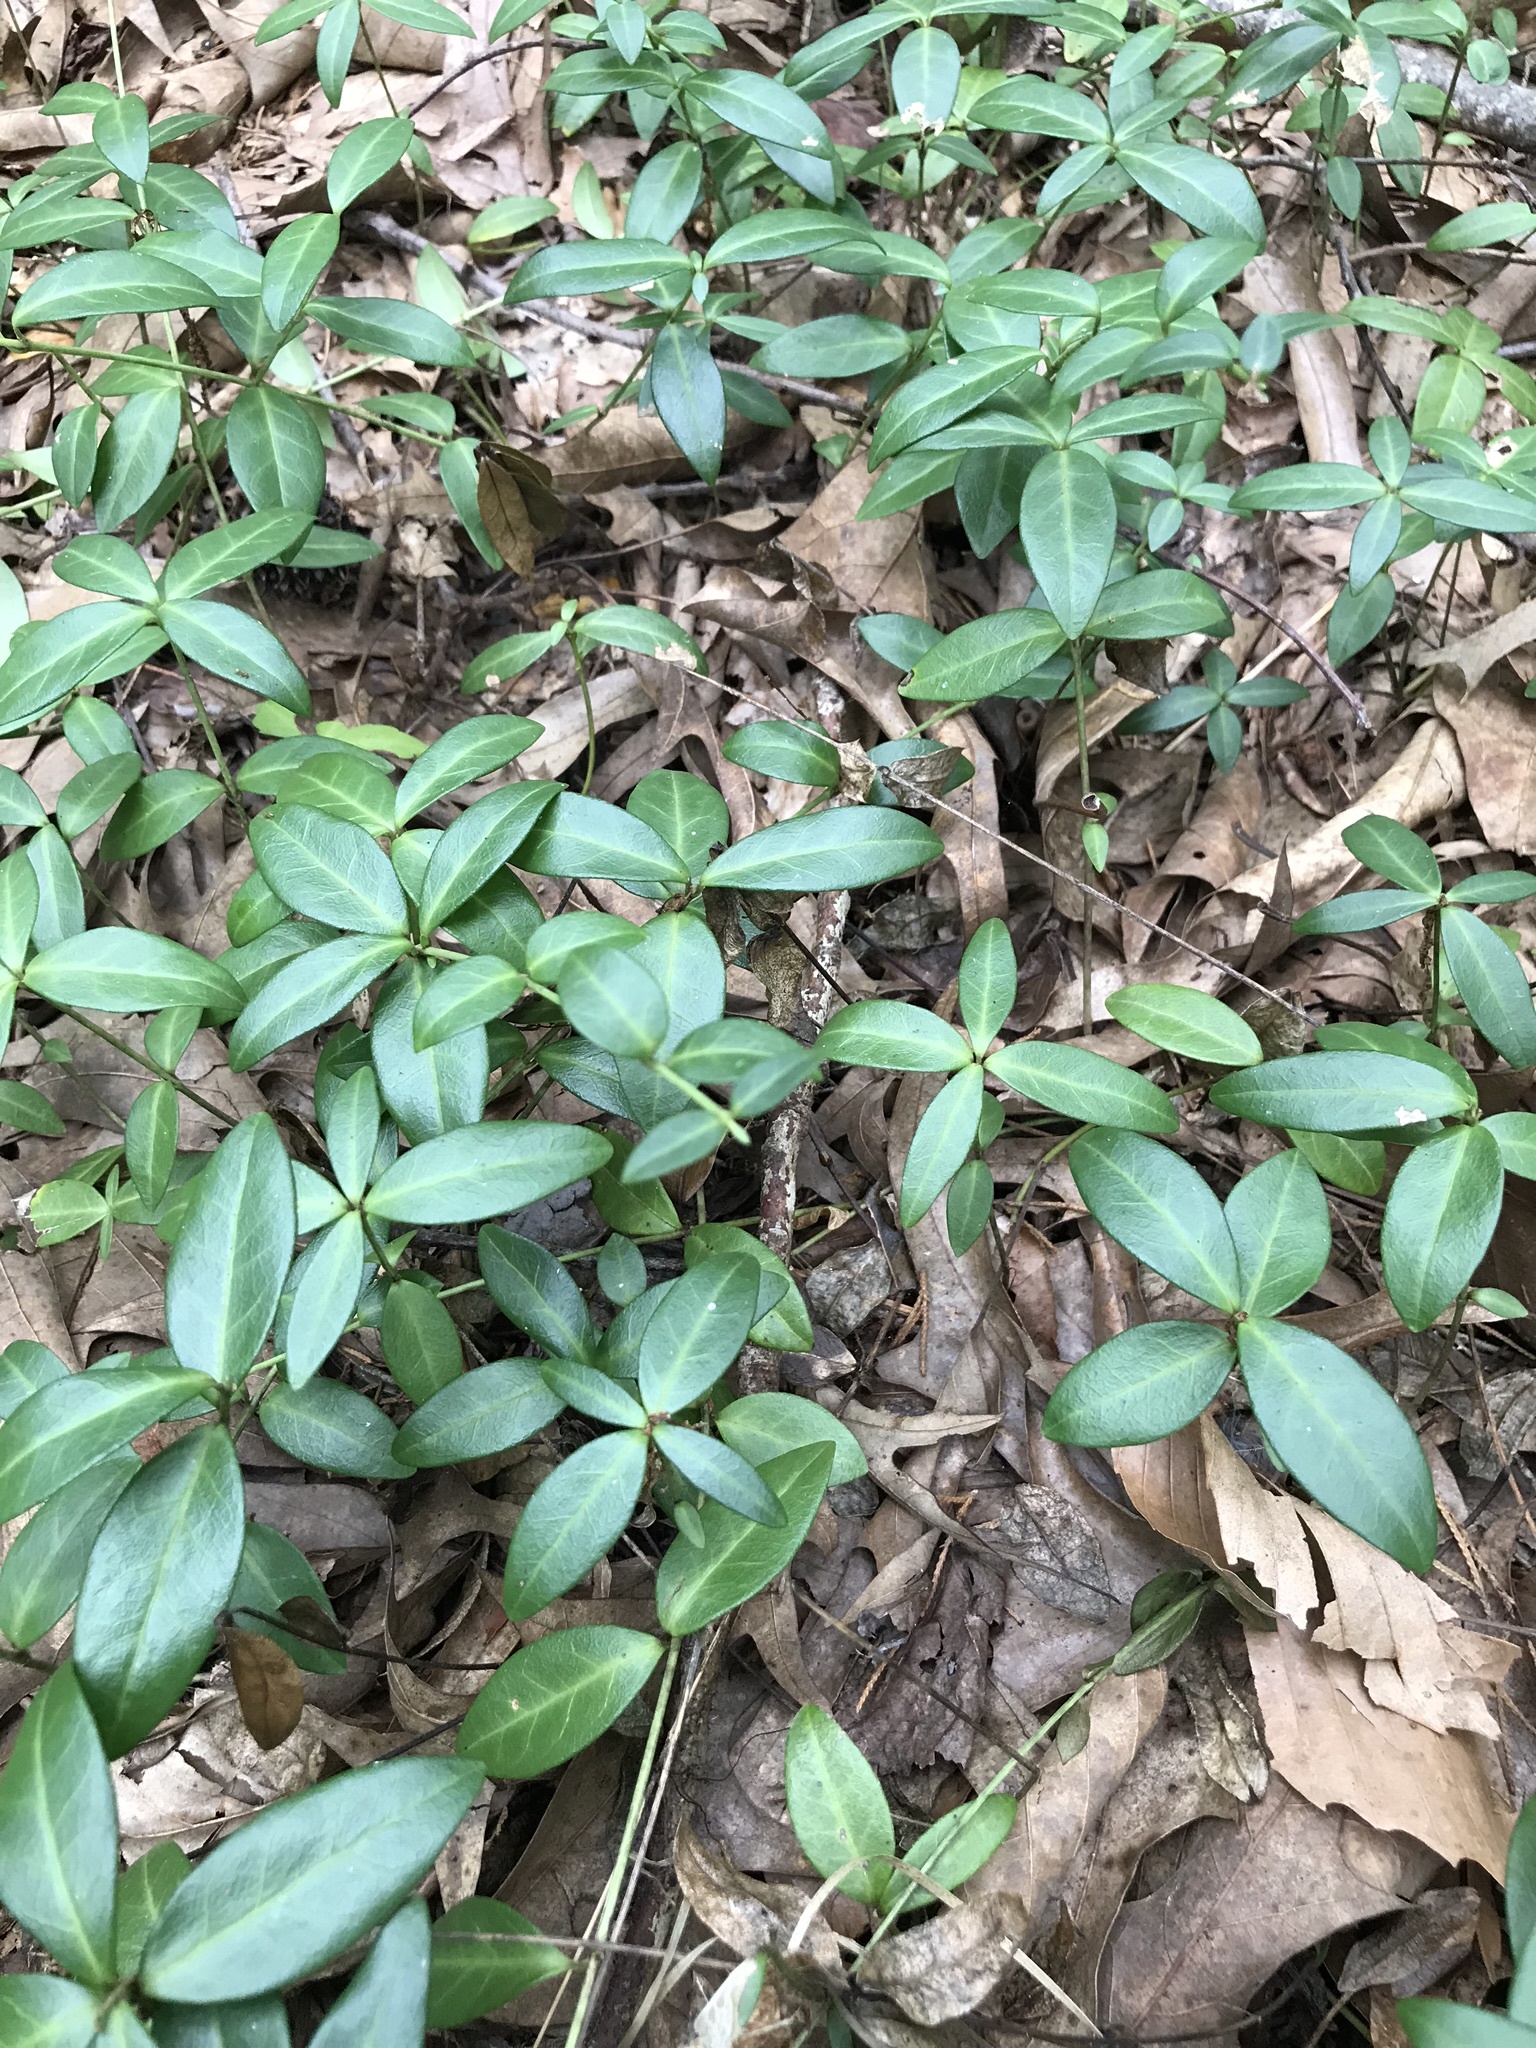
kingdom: Plantae
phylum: Tracheophyta
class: Magnoliopsida
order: Gentianales
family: Apocynaceae
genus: Vinca
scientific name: Vinca minor
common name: Lesser periwinkle
